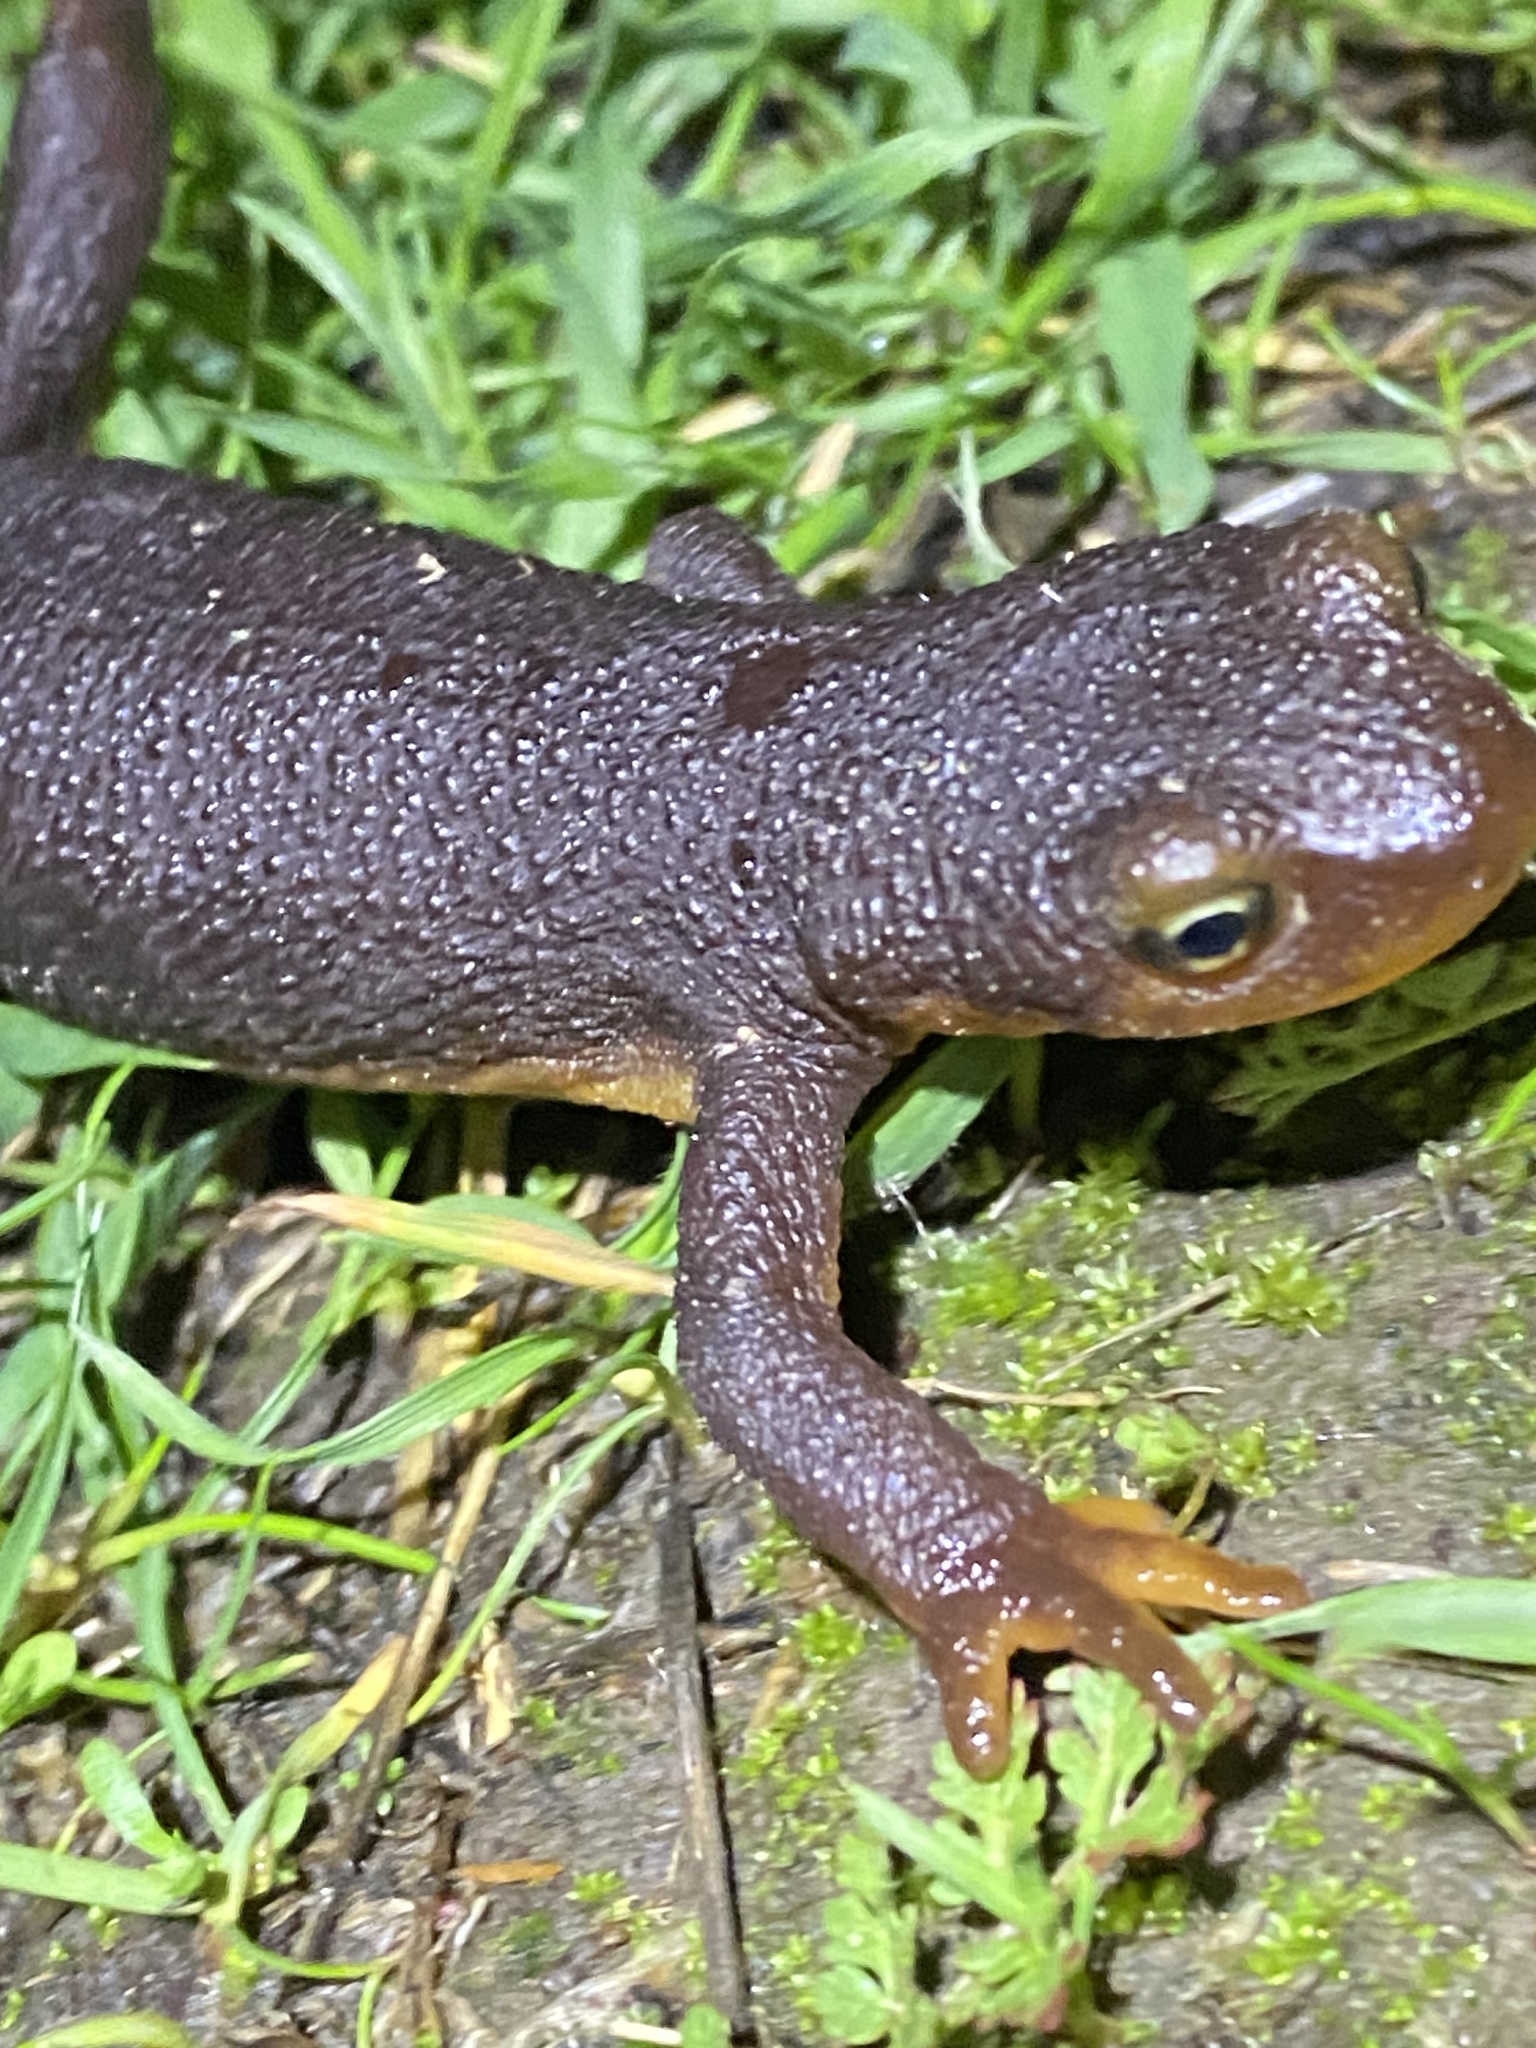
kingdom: Animalia
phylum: Chordata
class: Amphibia
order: Caudata
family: Salamandridae
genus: Taricha
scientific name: Taricha torosa
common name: California newt
